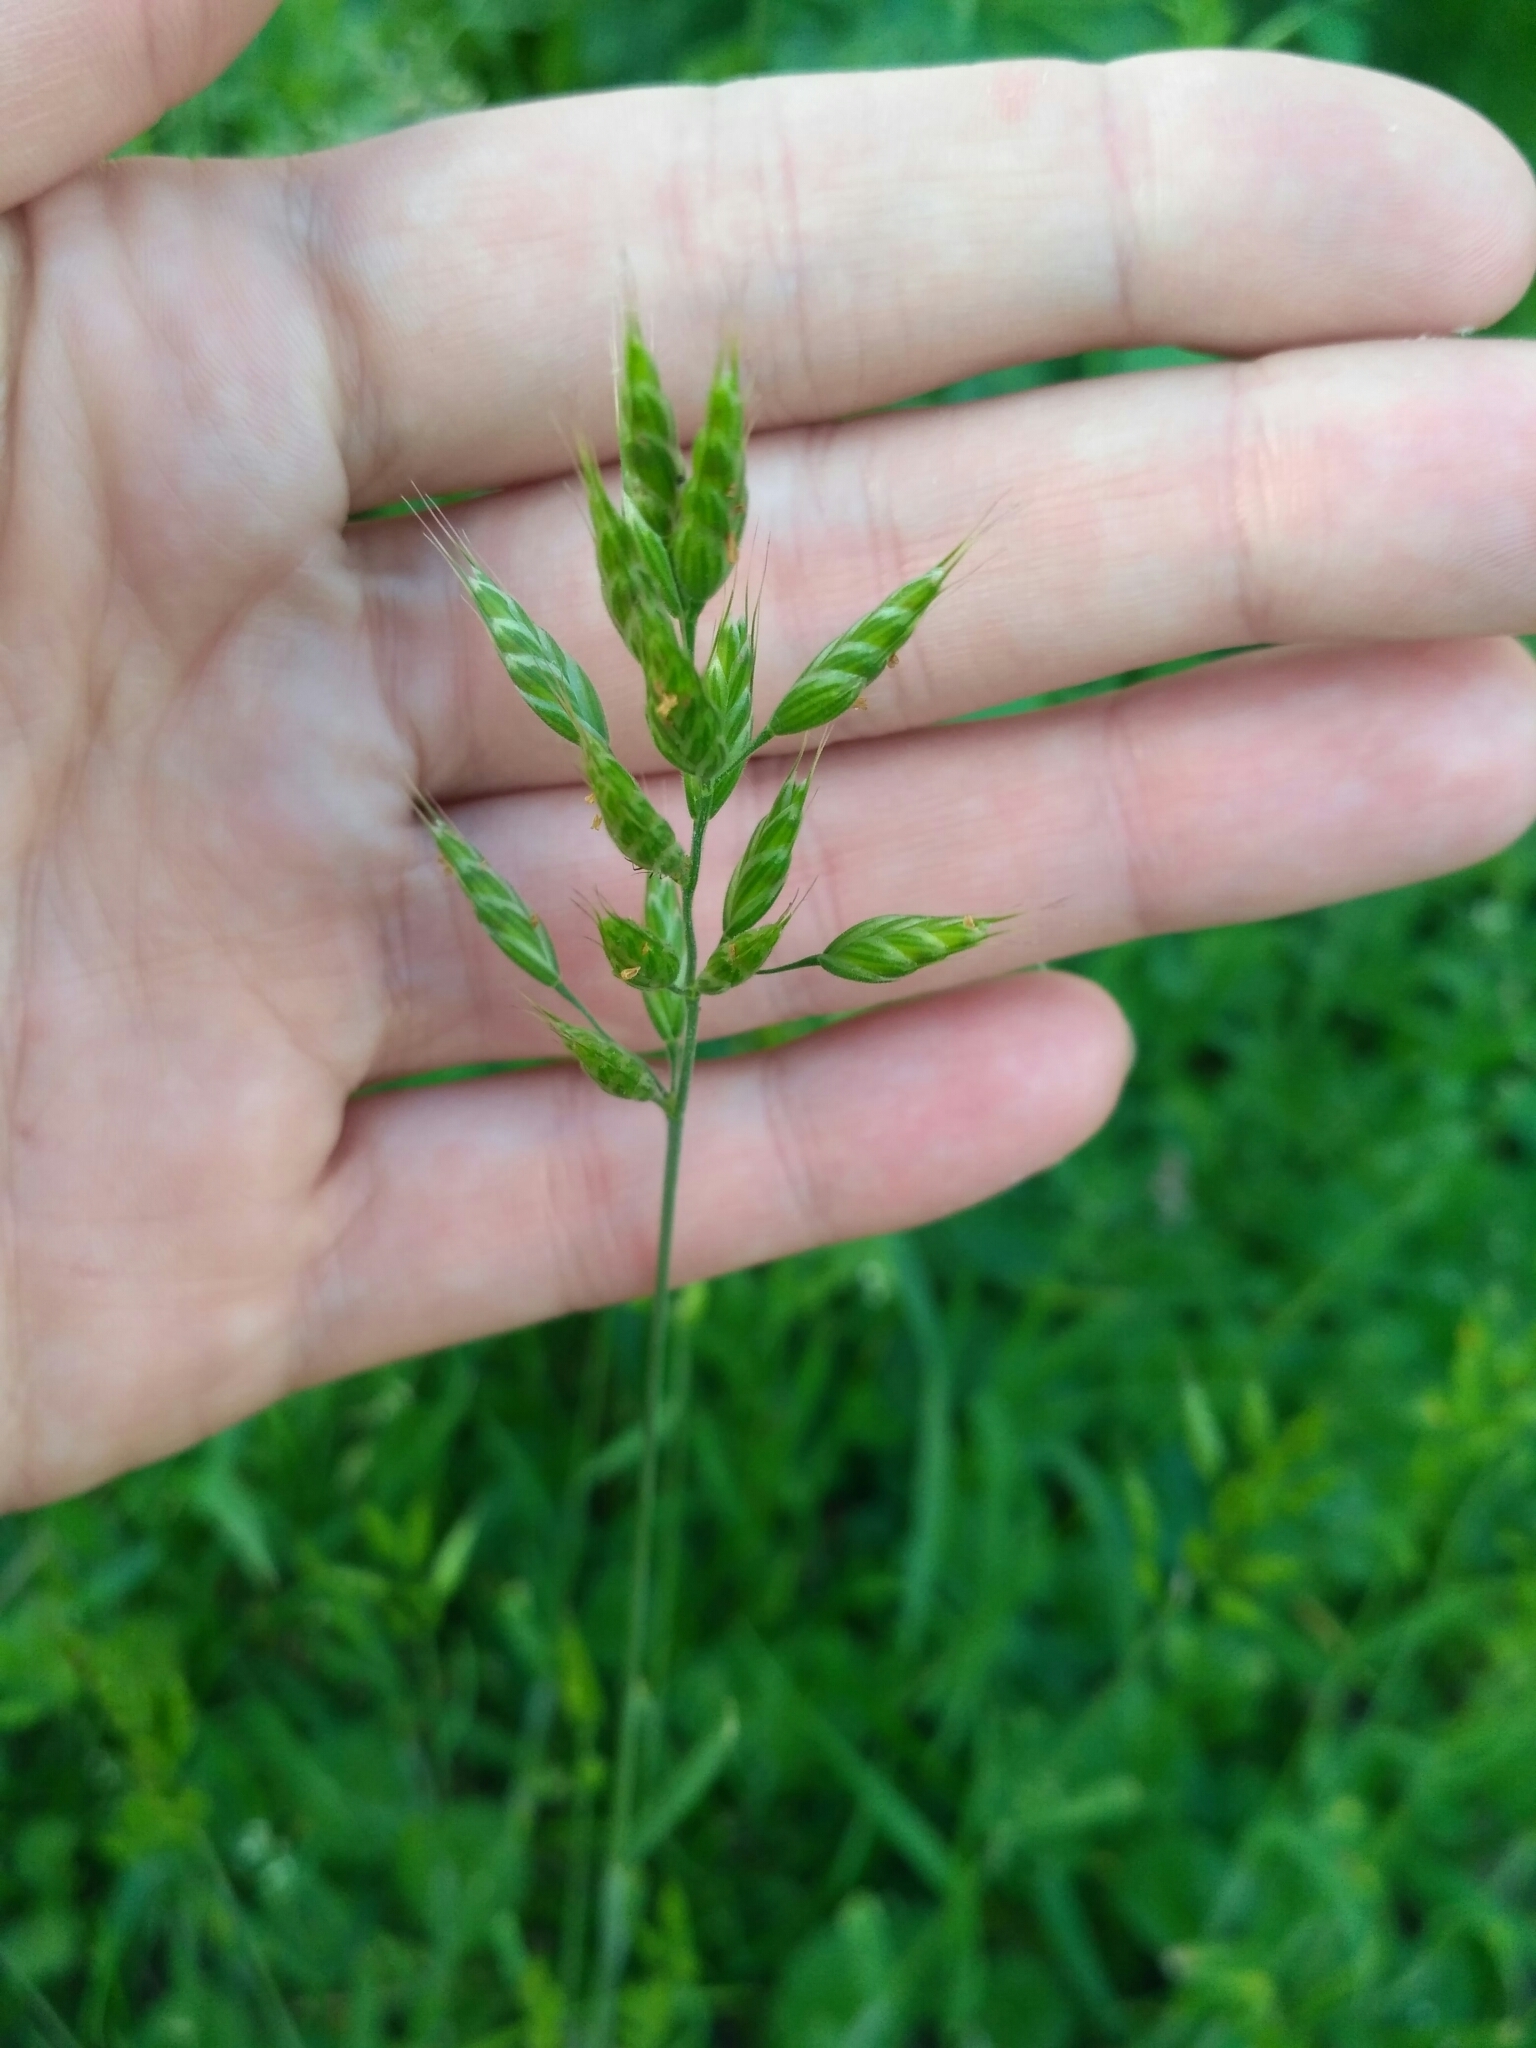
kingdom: Plantae
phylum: Tracheophyta
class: Liliopsida
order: Poales
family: Poaceae
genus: Bromus
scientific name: Bromus hordeaceus
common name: Soft brome
